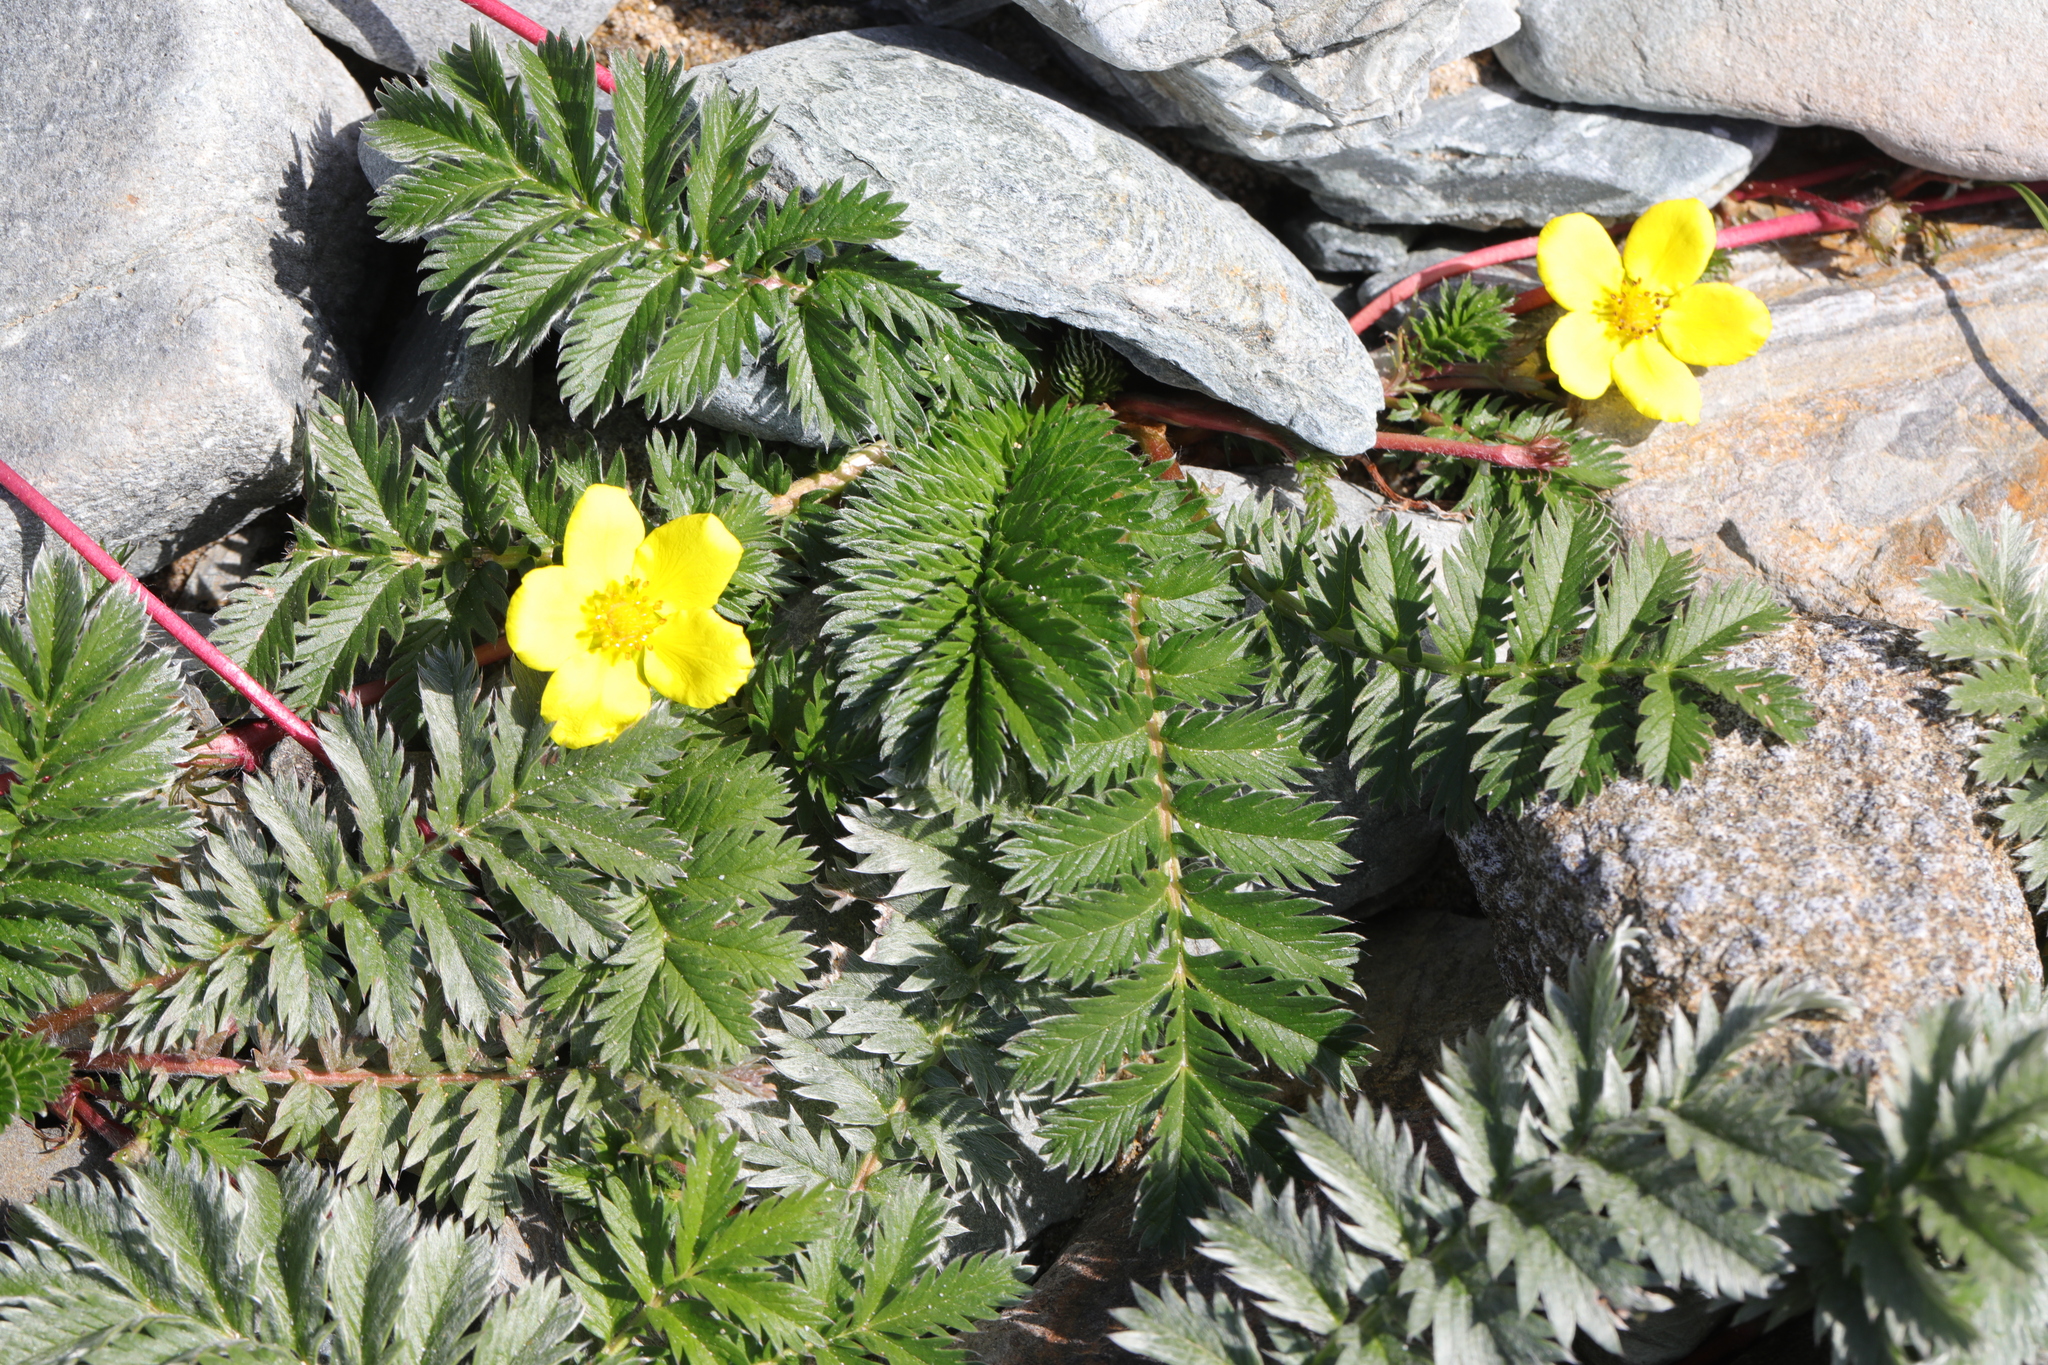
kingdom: Plantae
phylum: Tracheophyta
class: Magnoliopsida
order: Rosales
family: Rosaceae
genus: Argentina
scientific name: Argentina anserina
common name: Common silverweed
